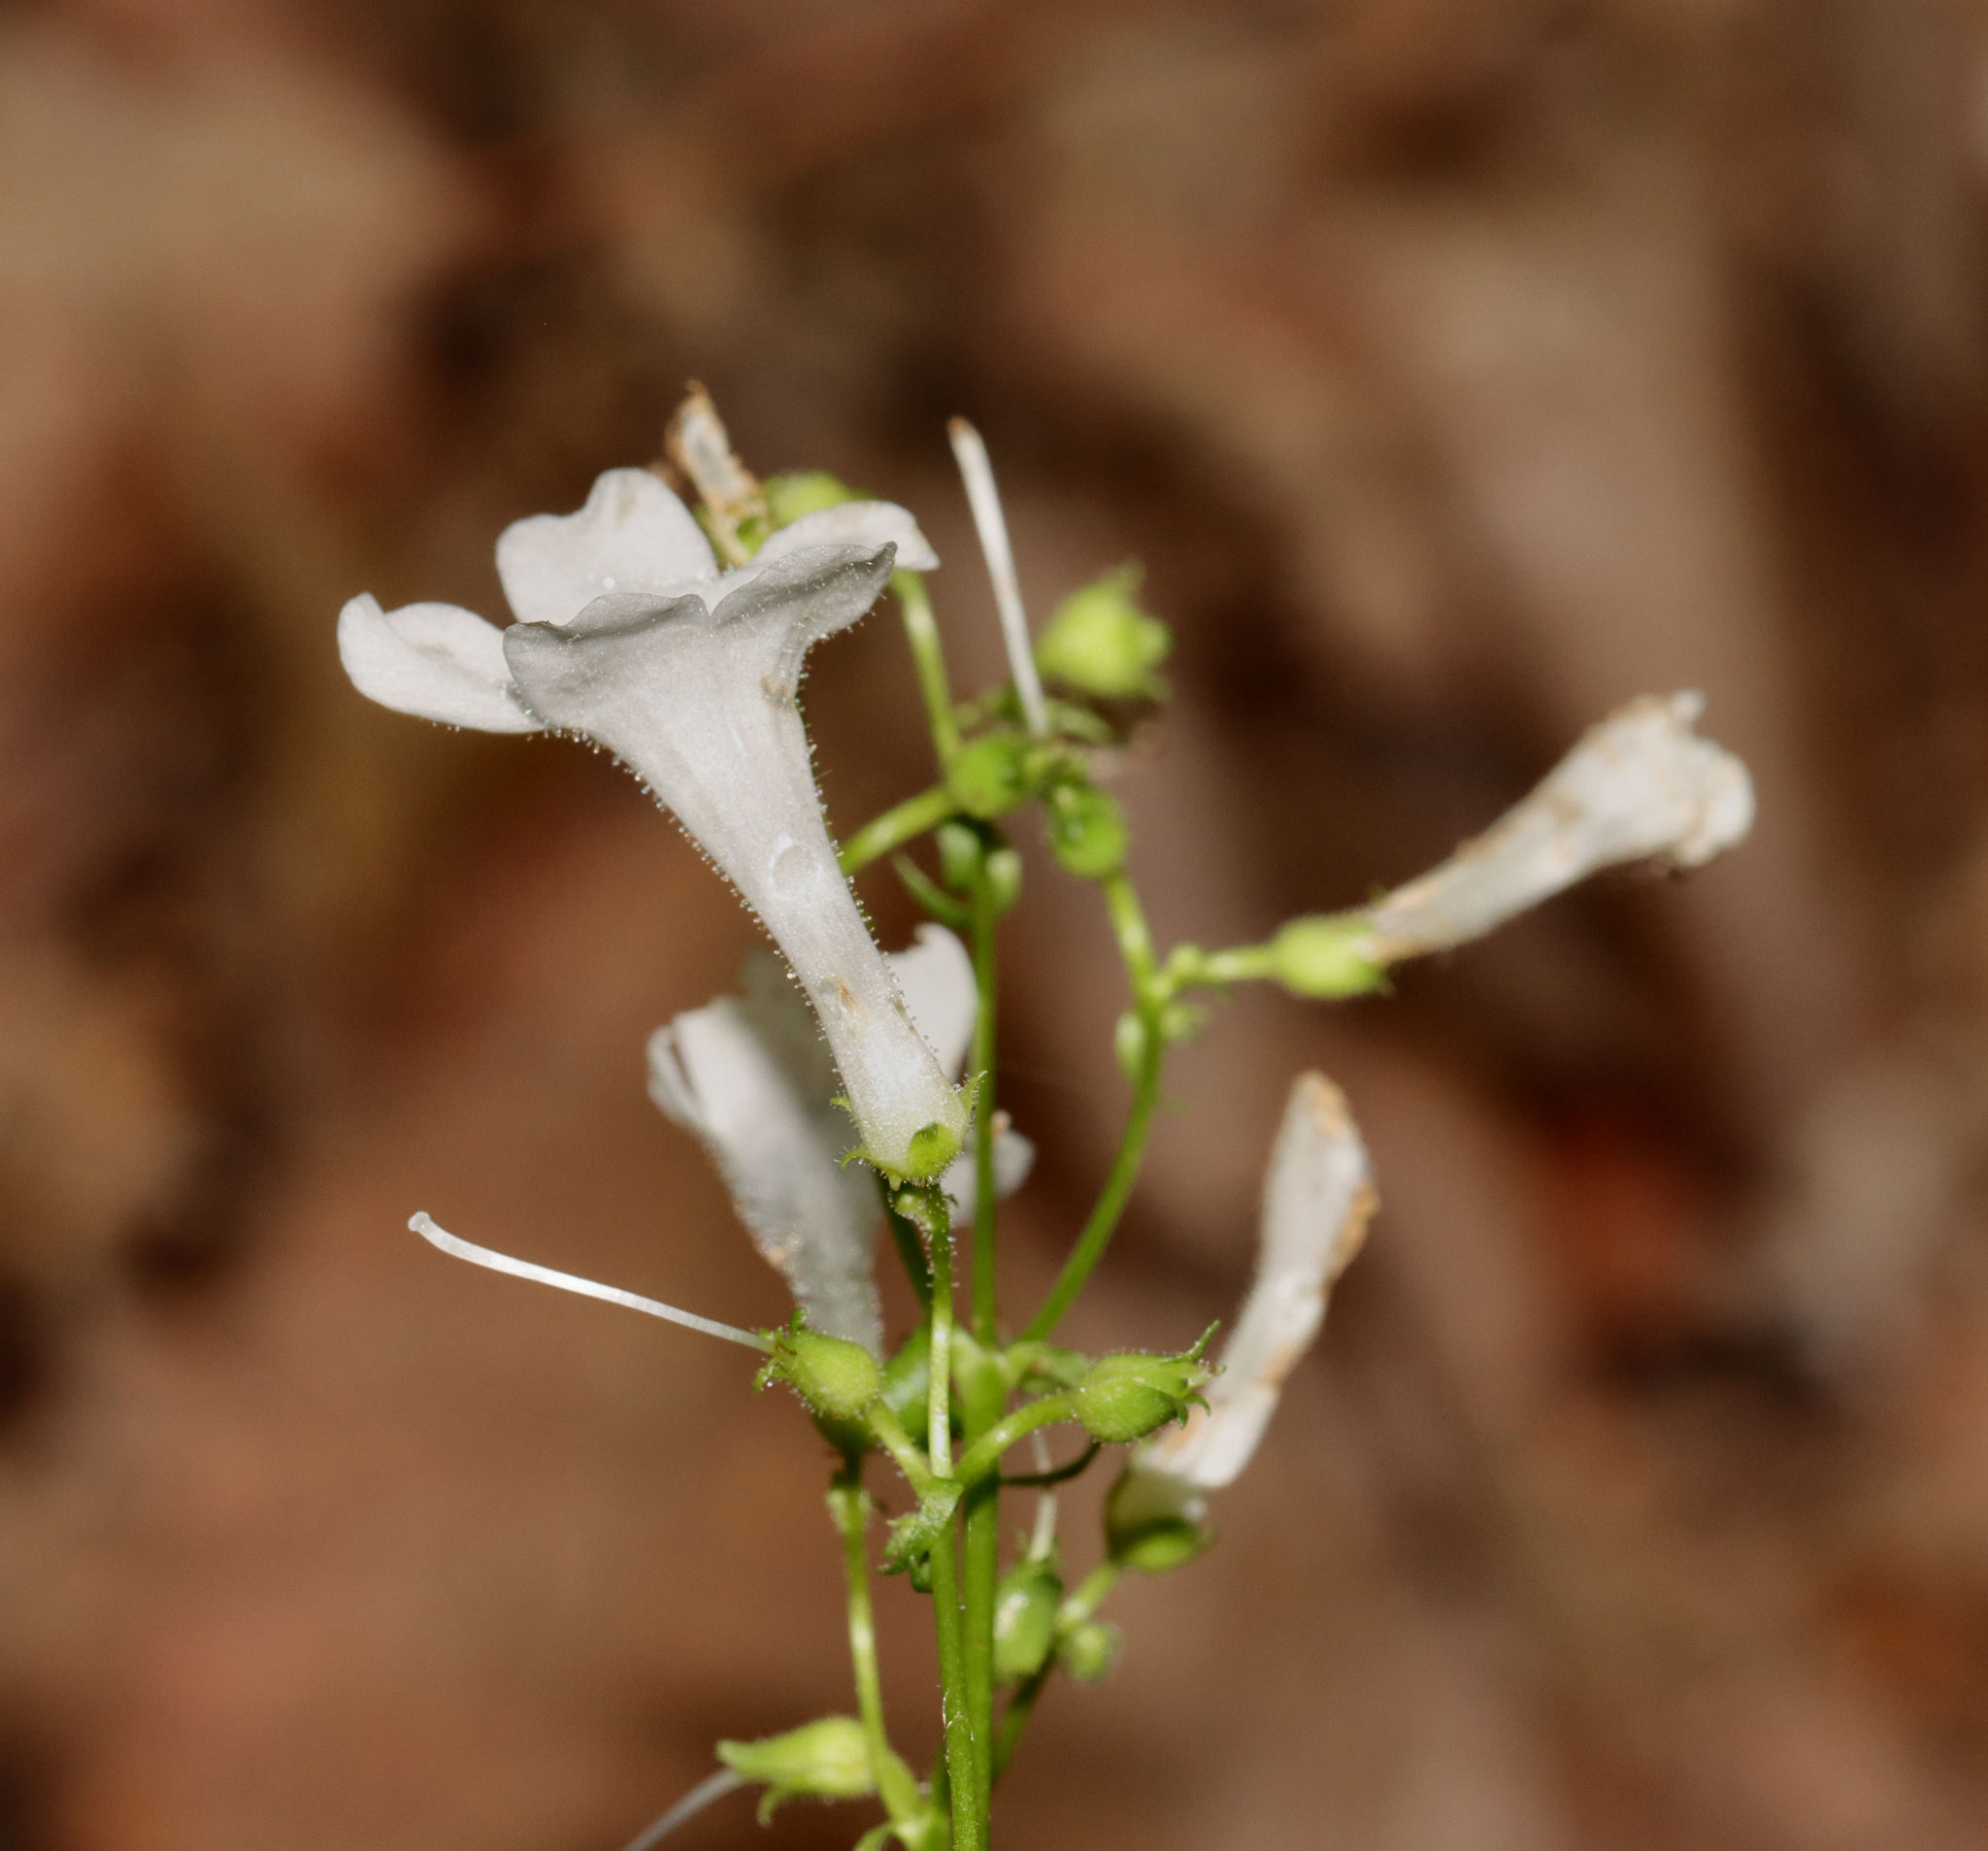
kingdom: Plantae
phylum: Tracheophyta
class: Magnoliopsida
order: Lamiales
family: Plantaginaceae
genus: Penstemon
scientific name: Penstemon tubaeflorus
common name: White wand beardtongue
